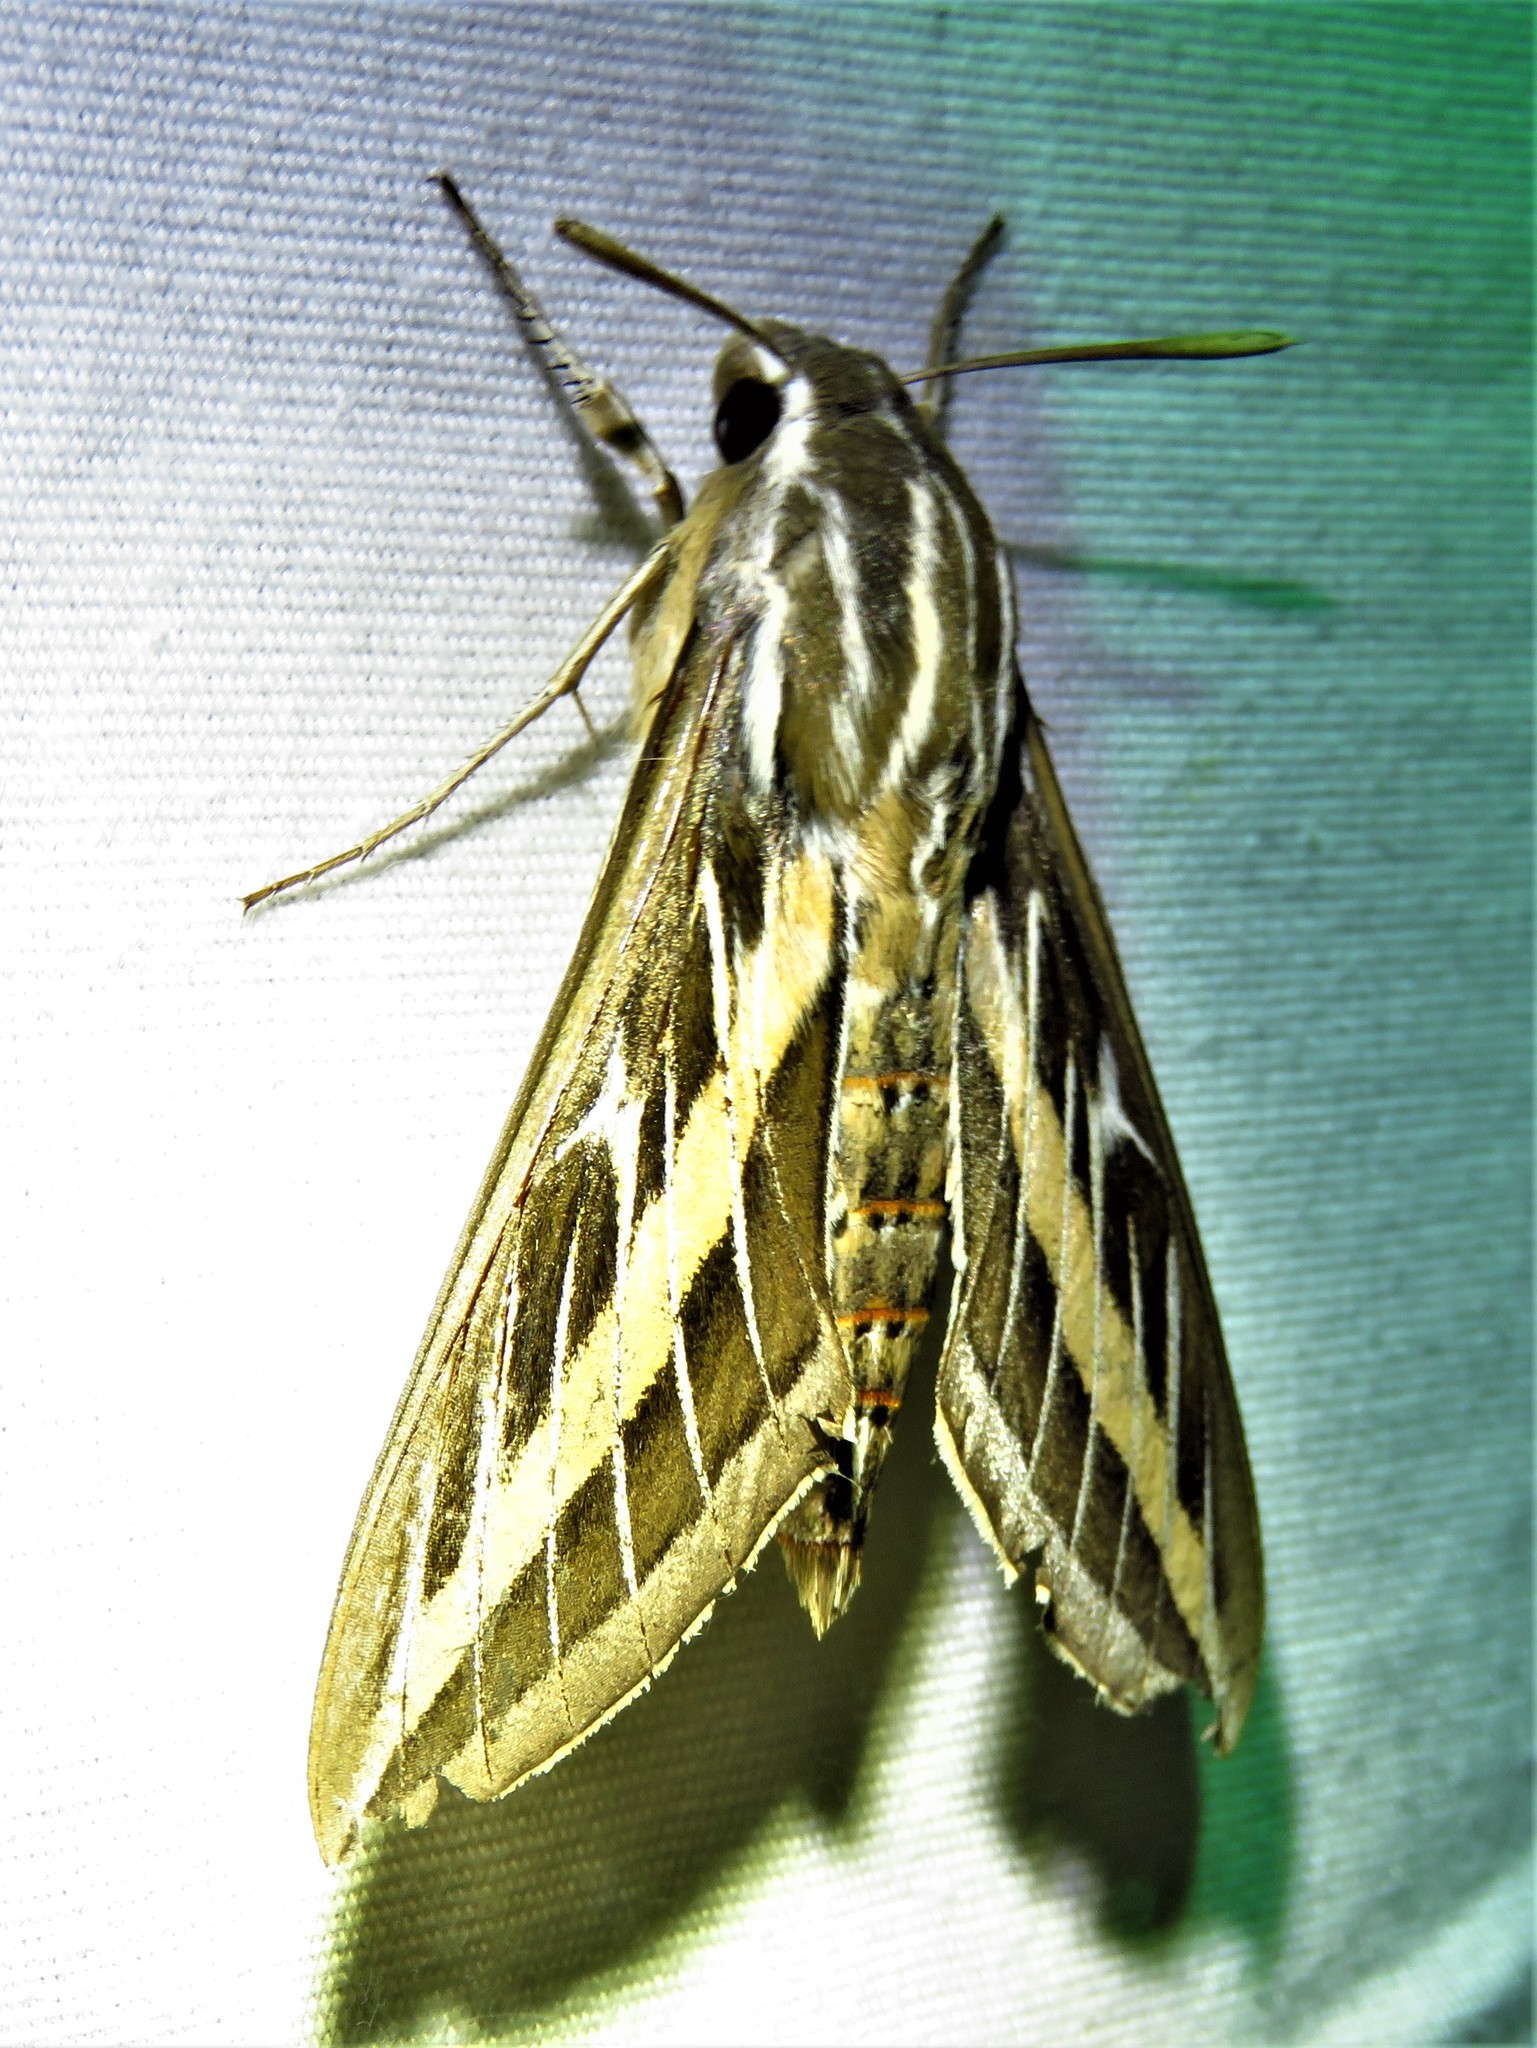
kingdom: Animalia
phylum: Arthropoda
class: Insecta
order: Lepidoptera
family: Sphingidae
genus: Hyles
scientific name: Hyles lineata
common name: White-lined sphinx
